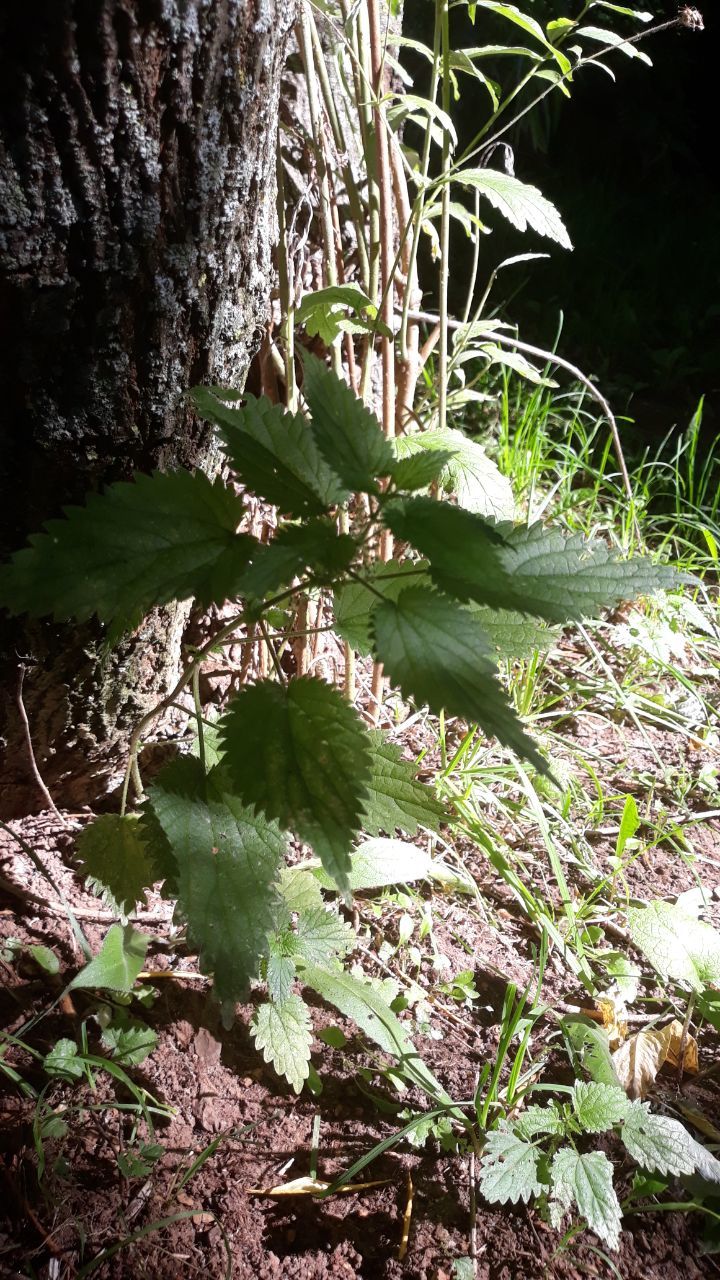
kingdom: Plantae
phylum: Tracheophyta
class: Magnoliopsida
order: Rosales
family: Urticaceae
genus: Urtica
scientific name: Urtica dioica
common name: Common nettle
